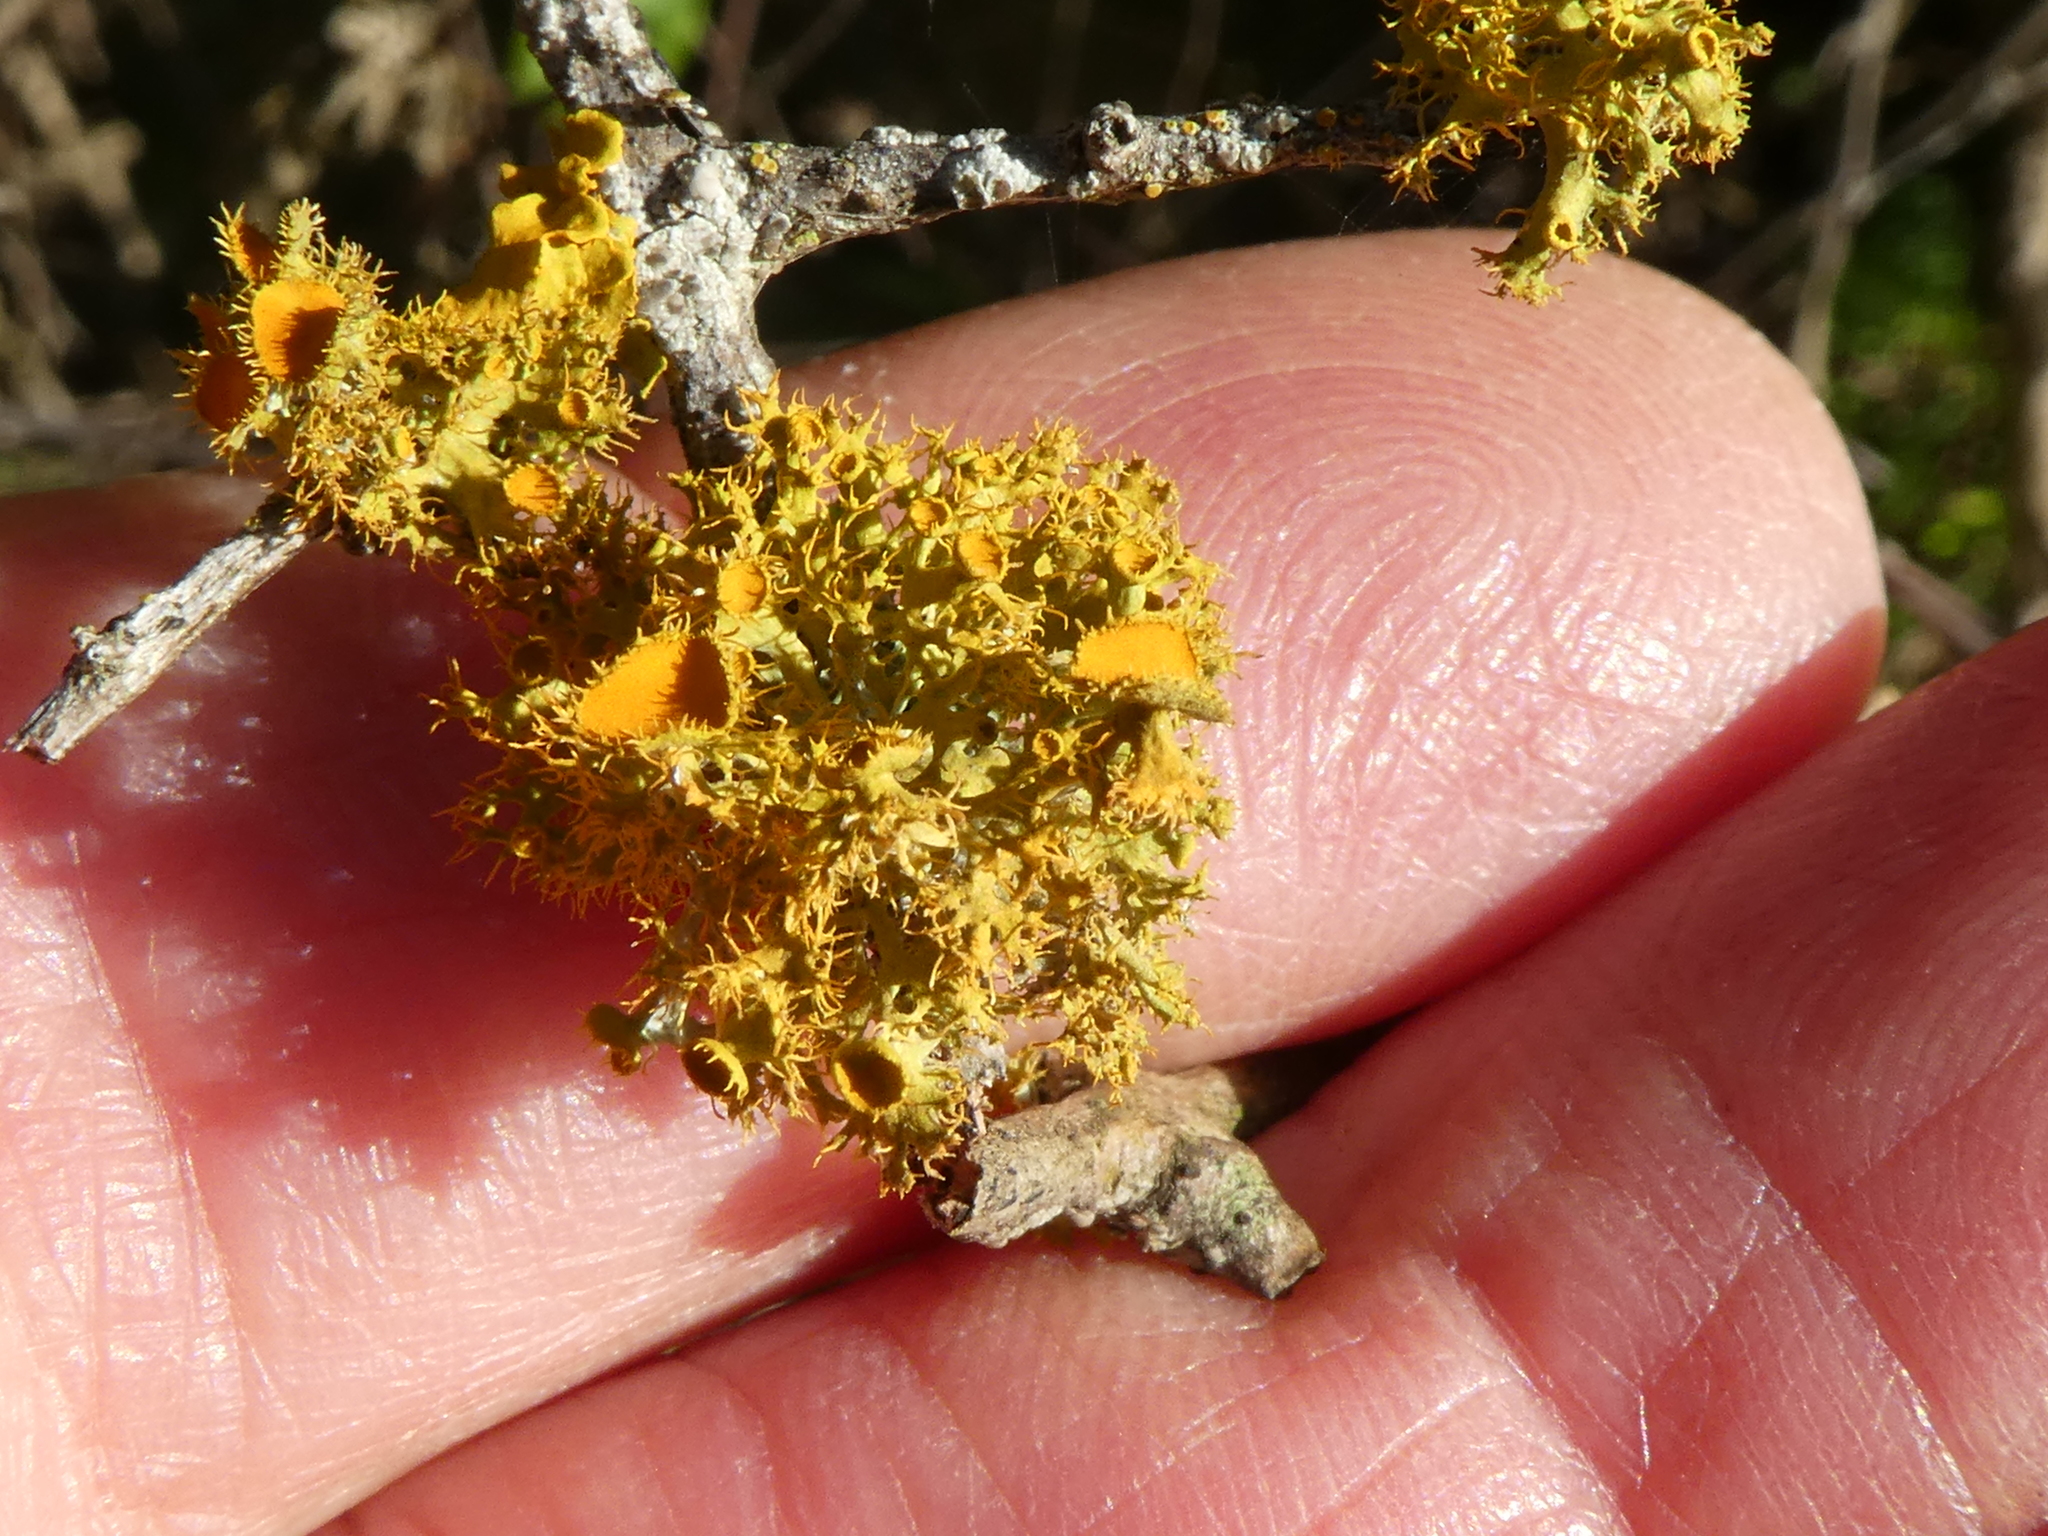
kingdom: Fungi
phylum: Ascomycota
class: Lecanoromycetes
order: Teloschistales
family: Teloschistaceae
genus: Niorma
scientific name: Niorma chrysophthalma
